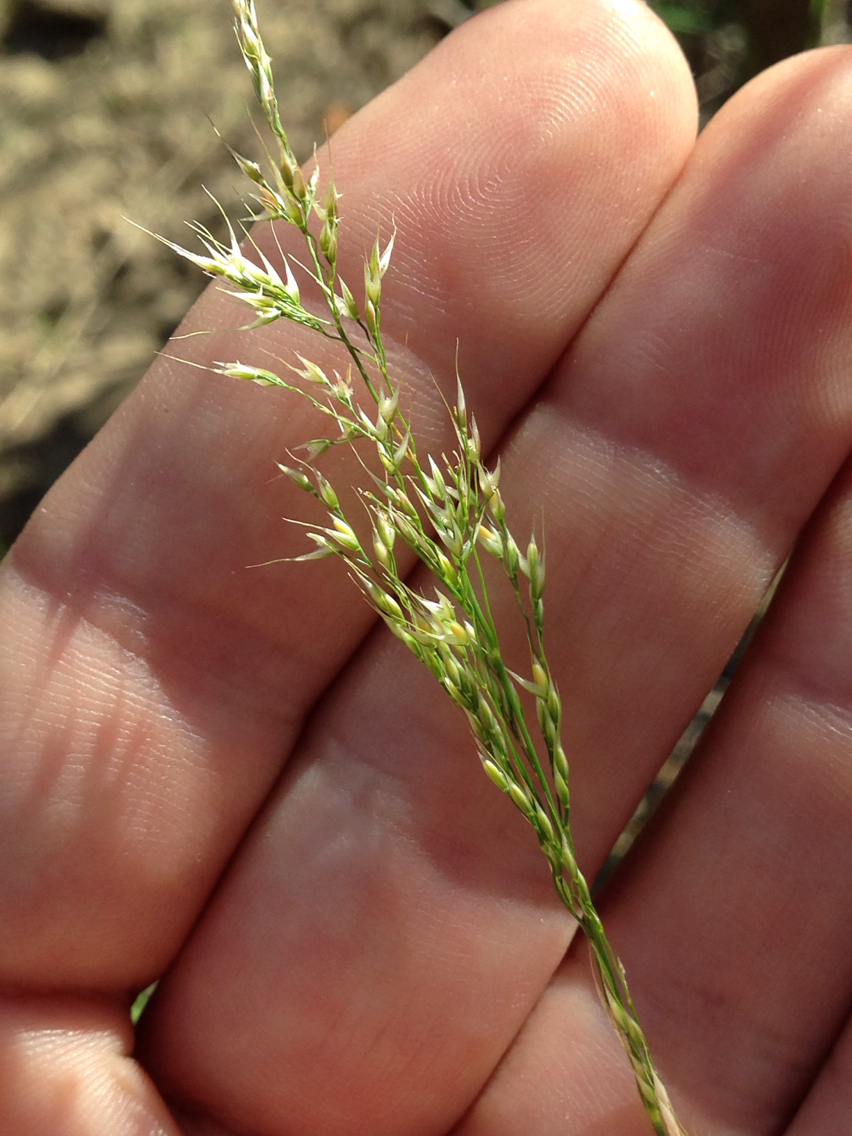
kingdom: Plantae
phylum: Tracheophyta
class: Liliopsida
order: Poales
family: Poaceae
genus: Apera
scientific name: Apera interrupta
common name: Dense silky-bent
